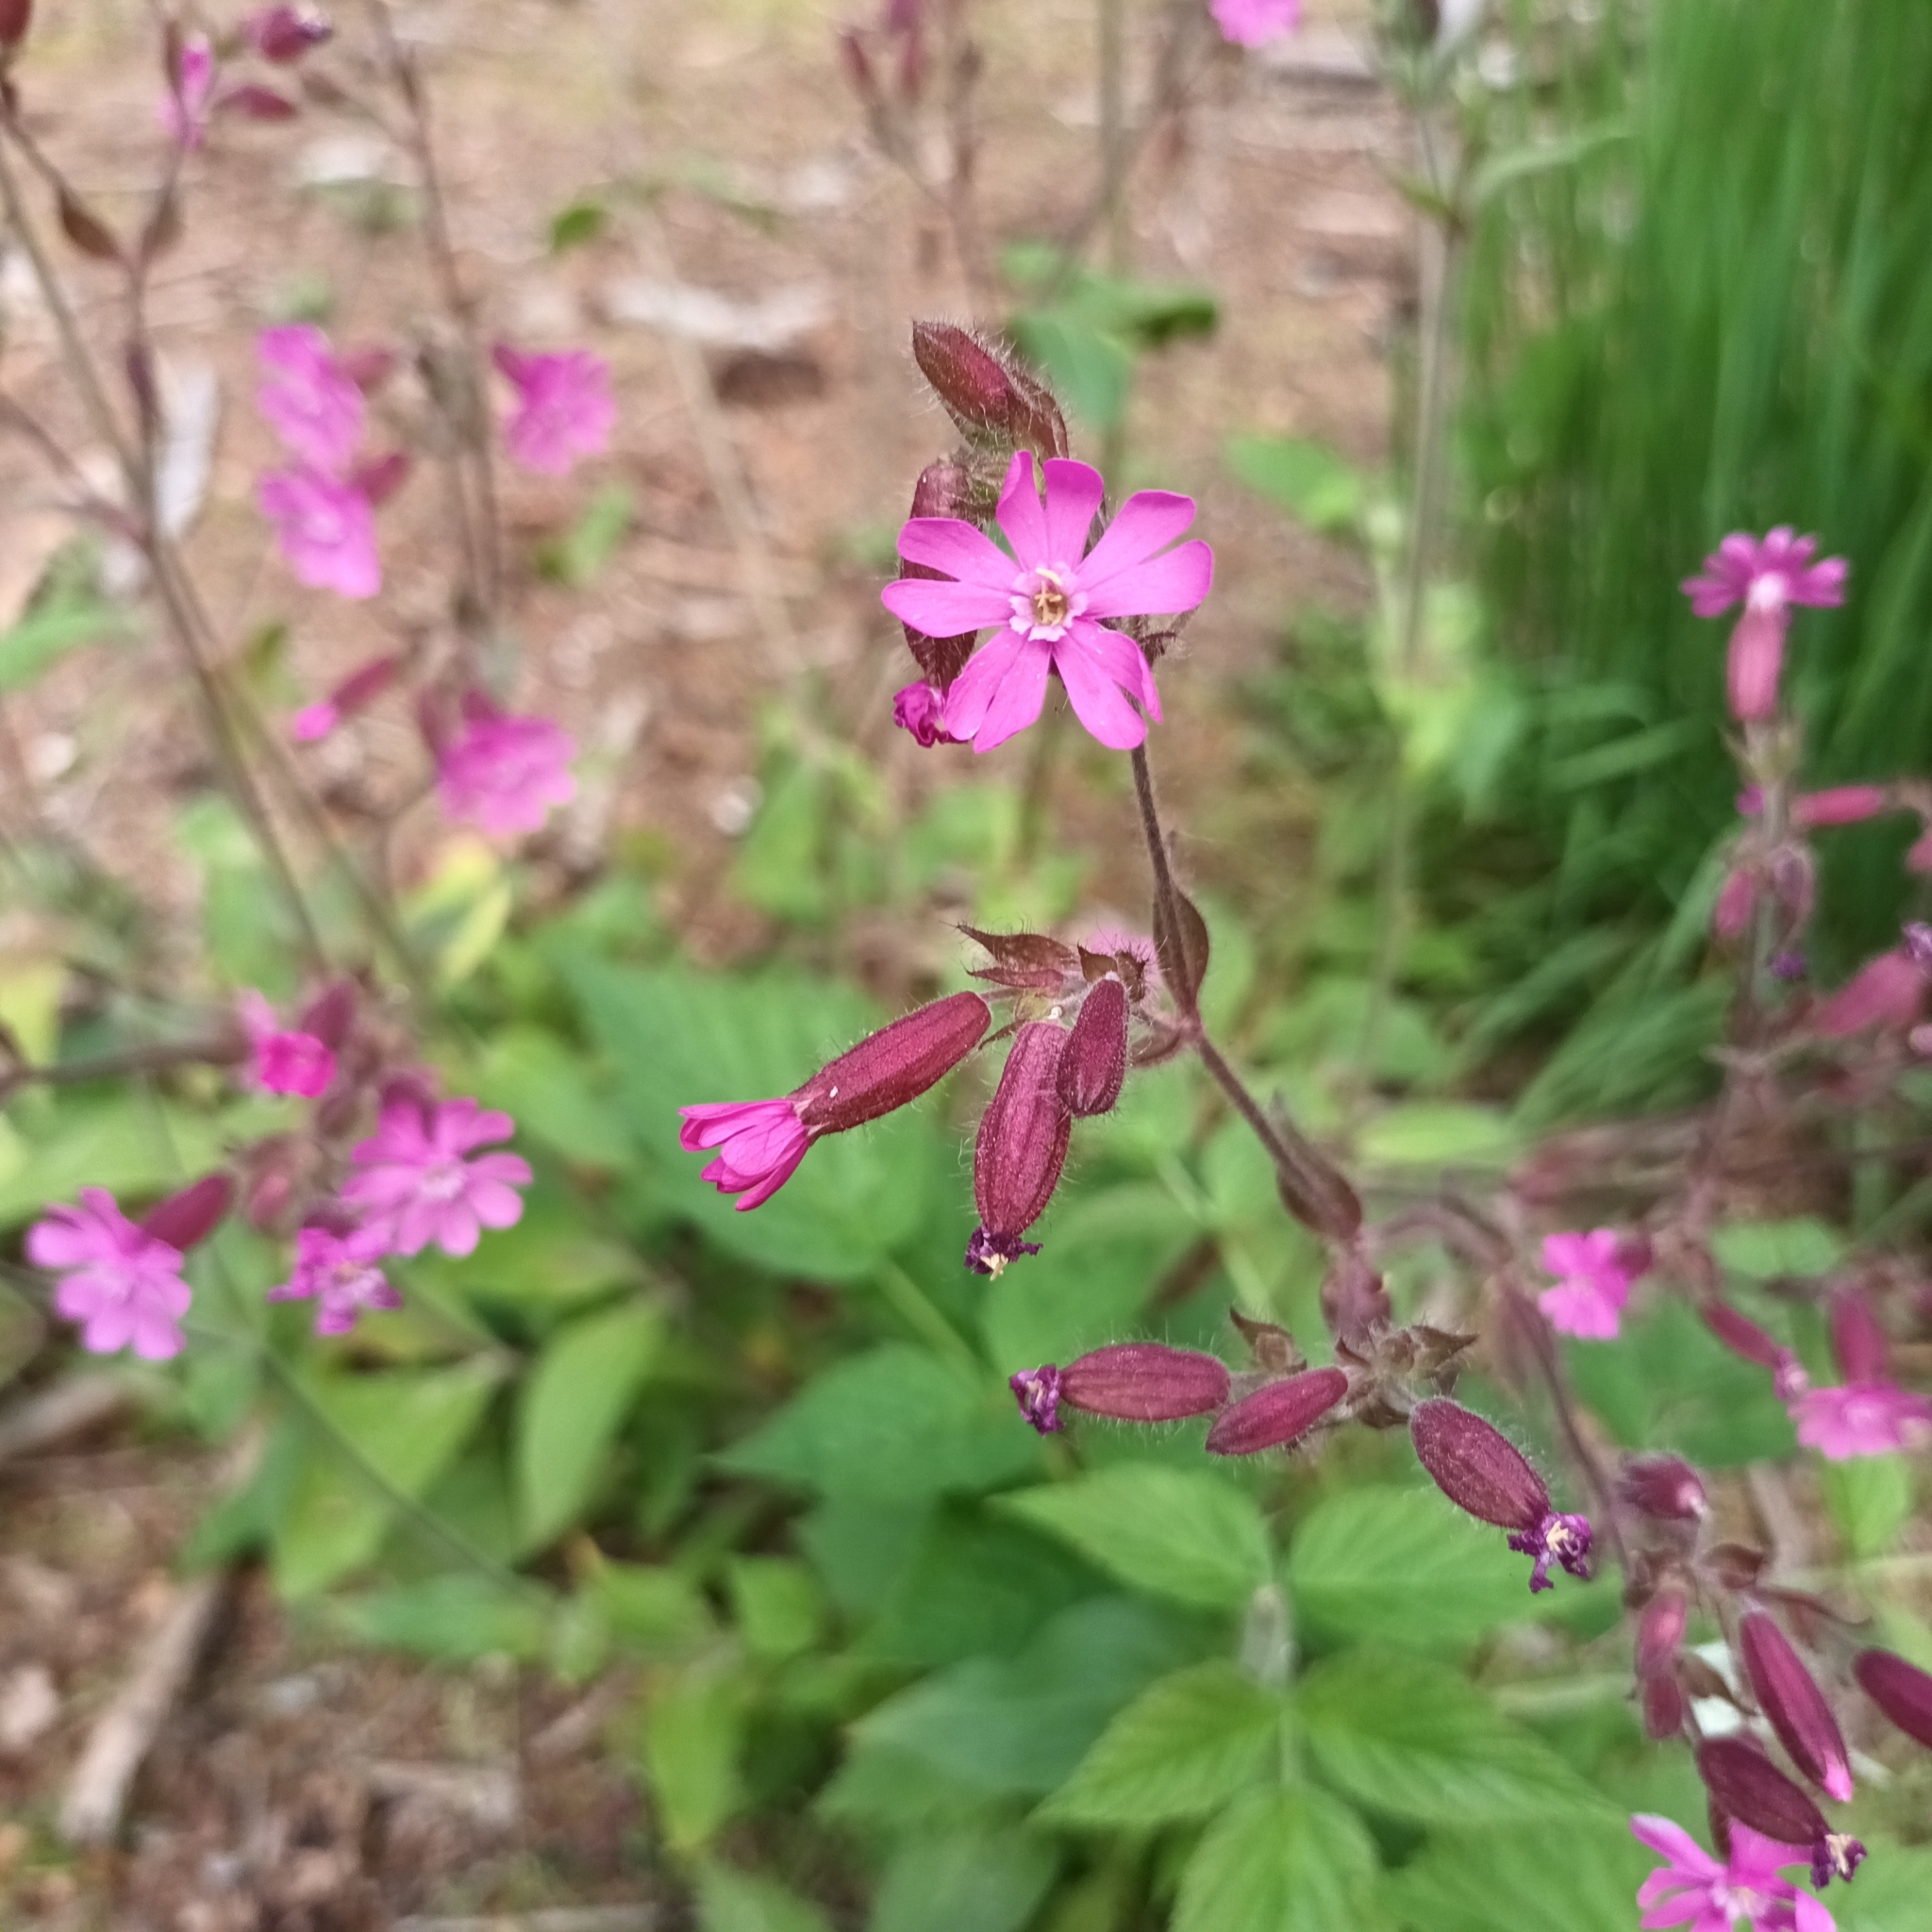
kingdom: Plantae
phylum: Tracheophyta
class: Magnoliopsida
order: Caryophyllales
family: Caryophyllaceae
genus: Silene
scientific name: Silene dioica
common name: Red campion
